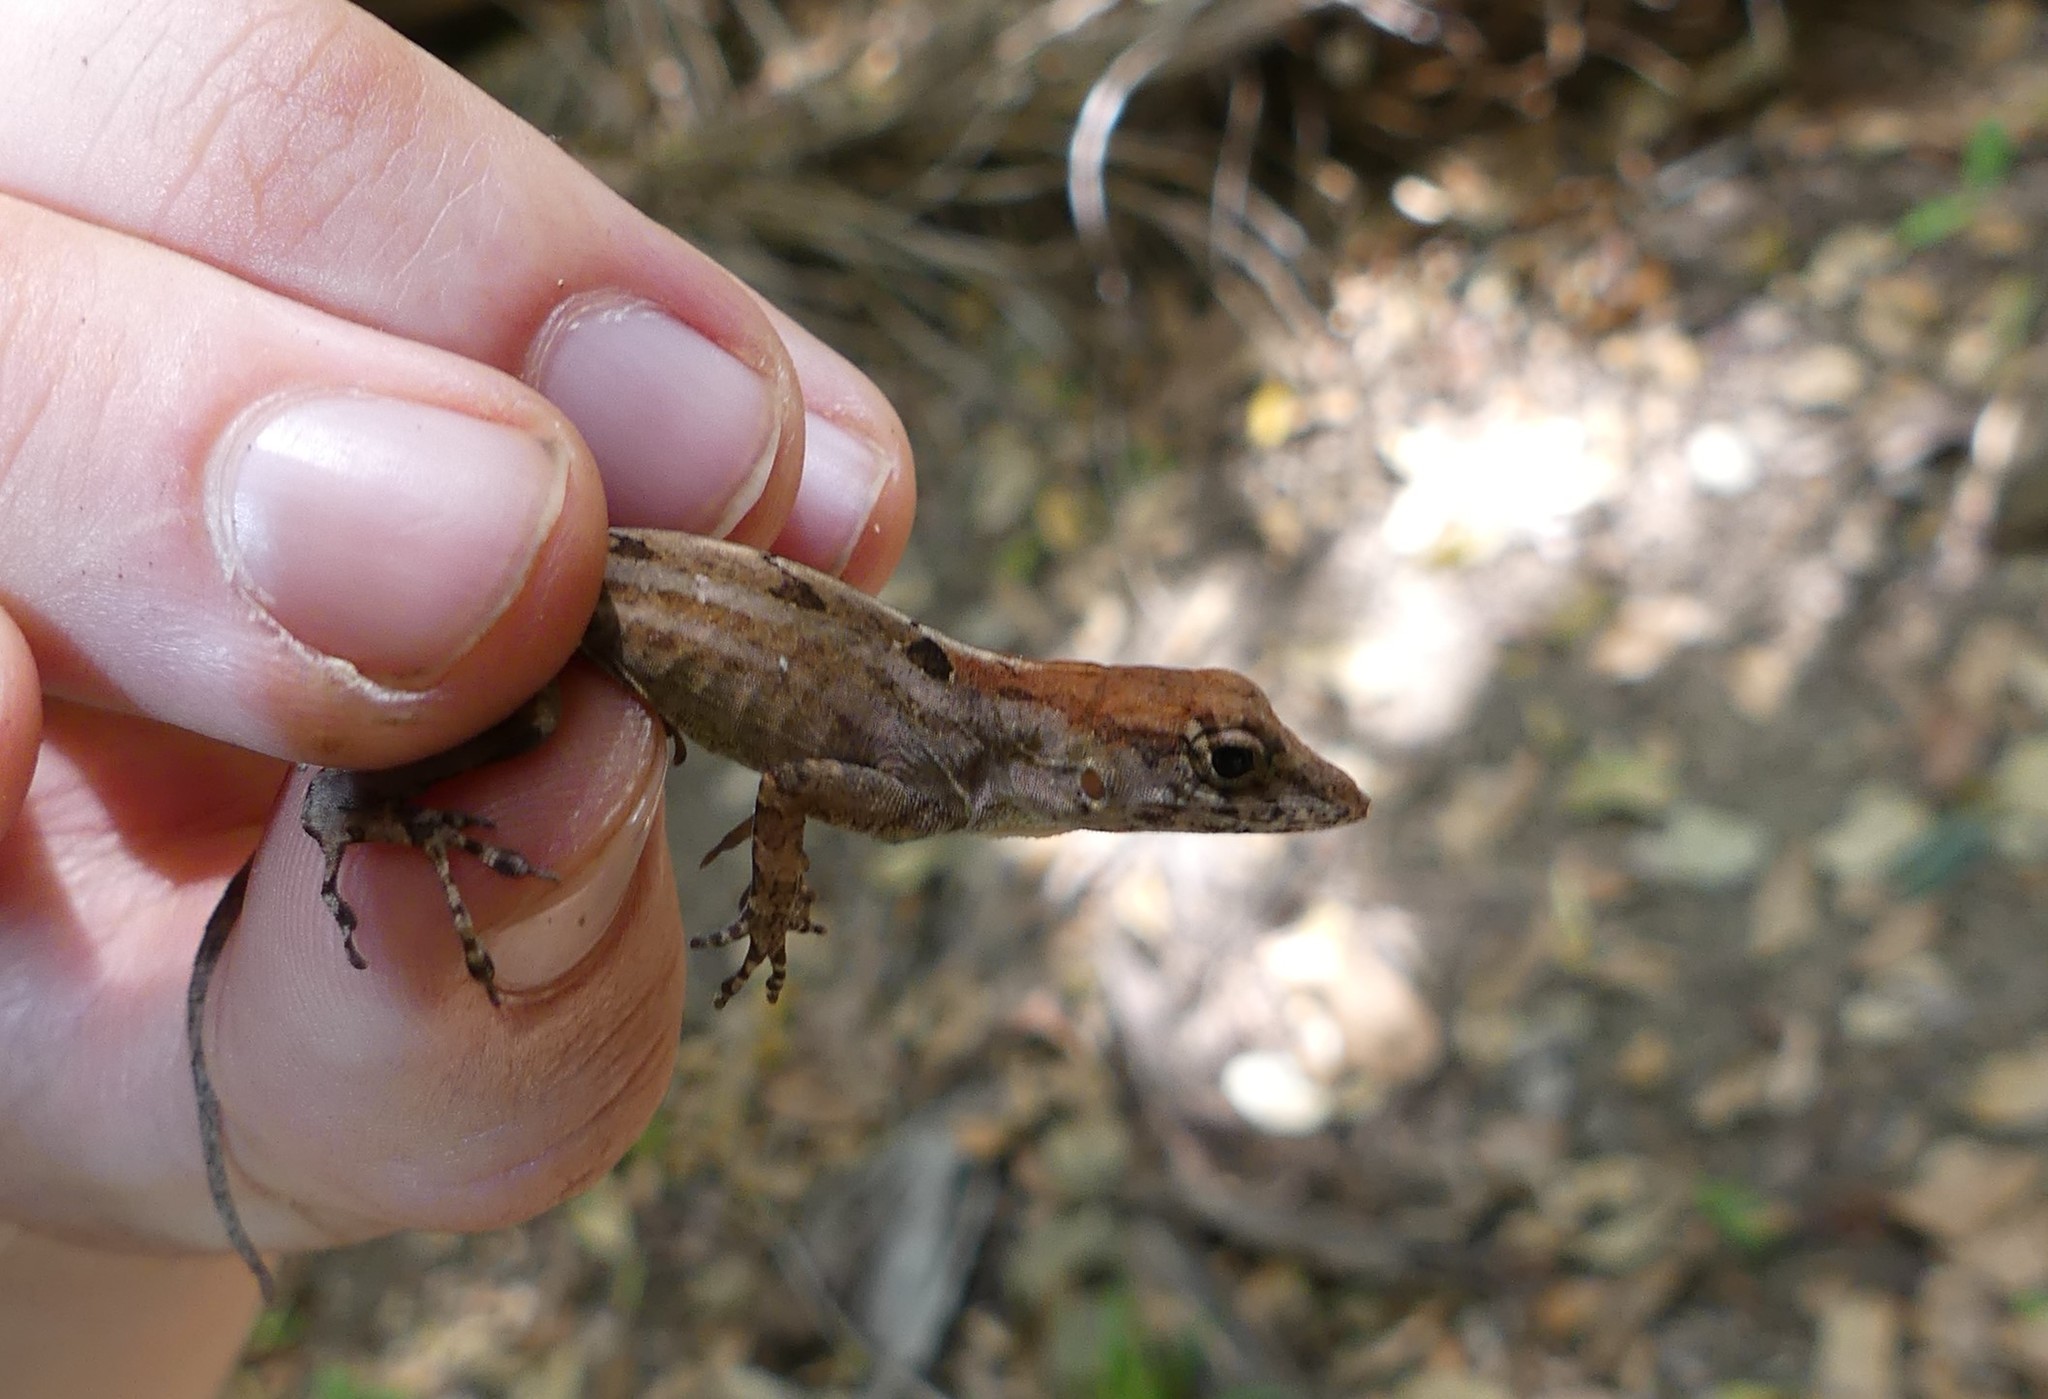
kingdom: Animalia
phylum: Chordata
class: Squamata
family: Dactyloidae
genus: Anolis
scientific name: Anolis homolechis
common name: Habana anole
